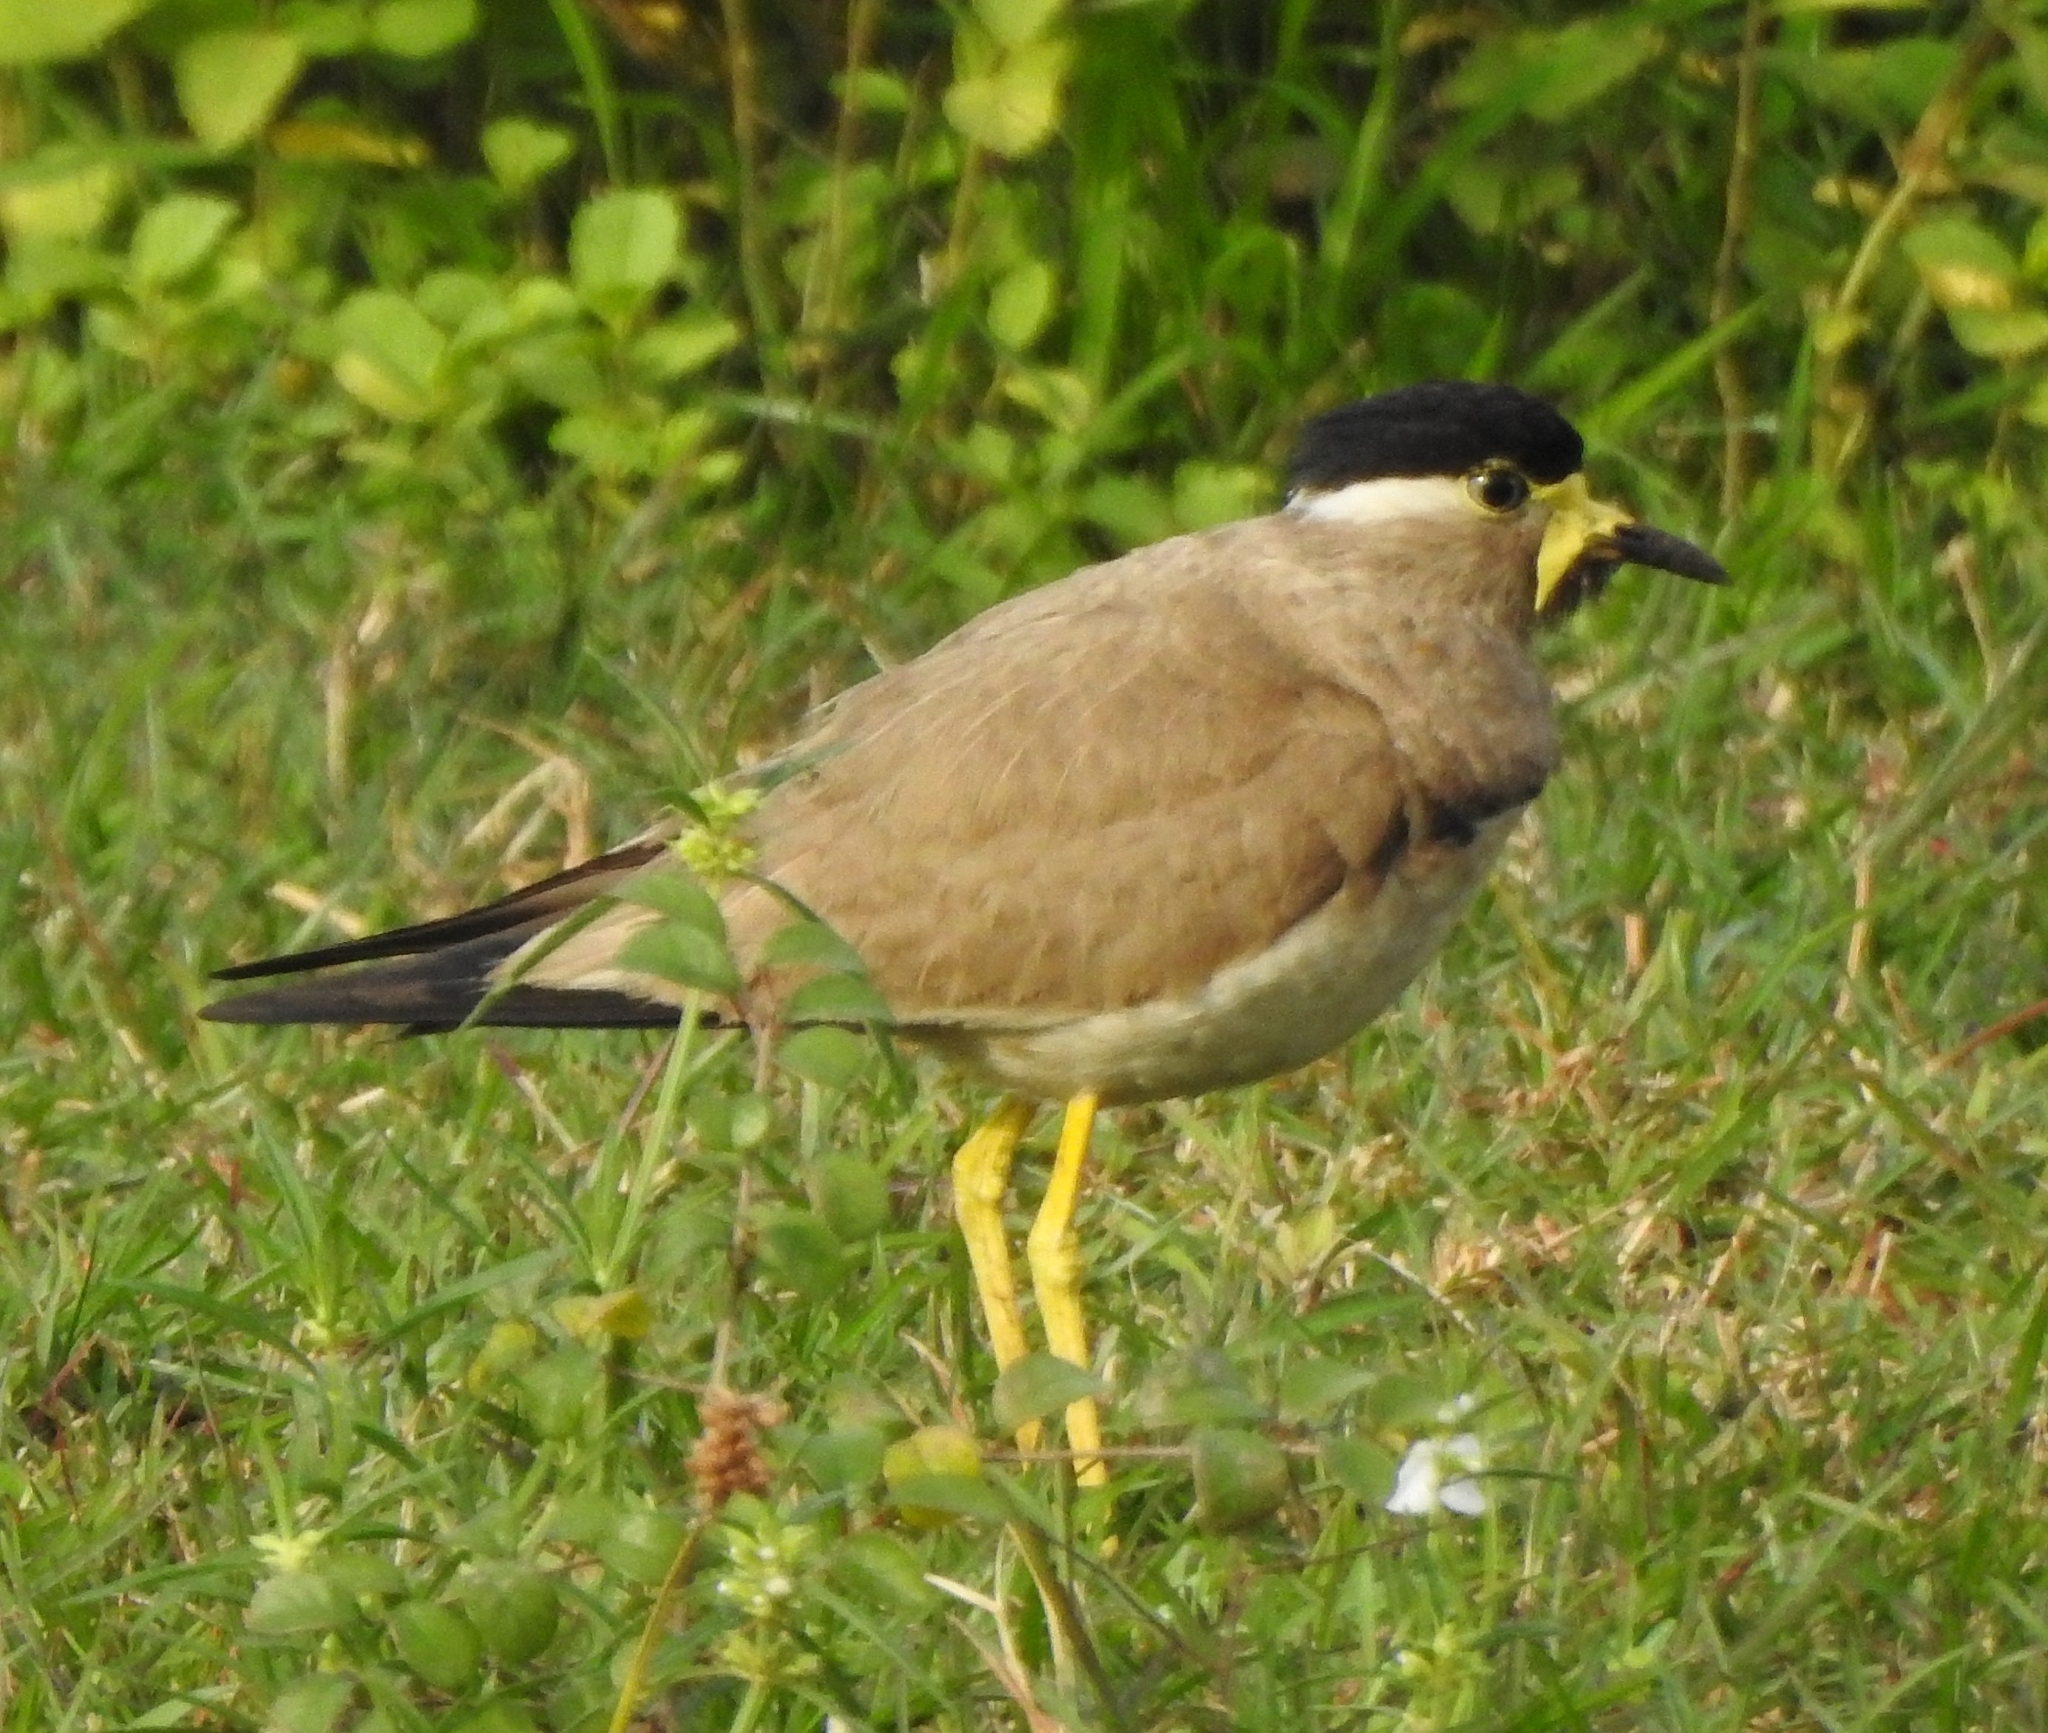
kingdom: Animalia
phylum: Chordata
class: Aves
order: Charadriiformes
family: Charadriidae
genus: Vanellus
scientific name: Vanellus malabaricus
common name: Yellow-wattled lapwing
